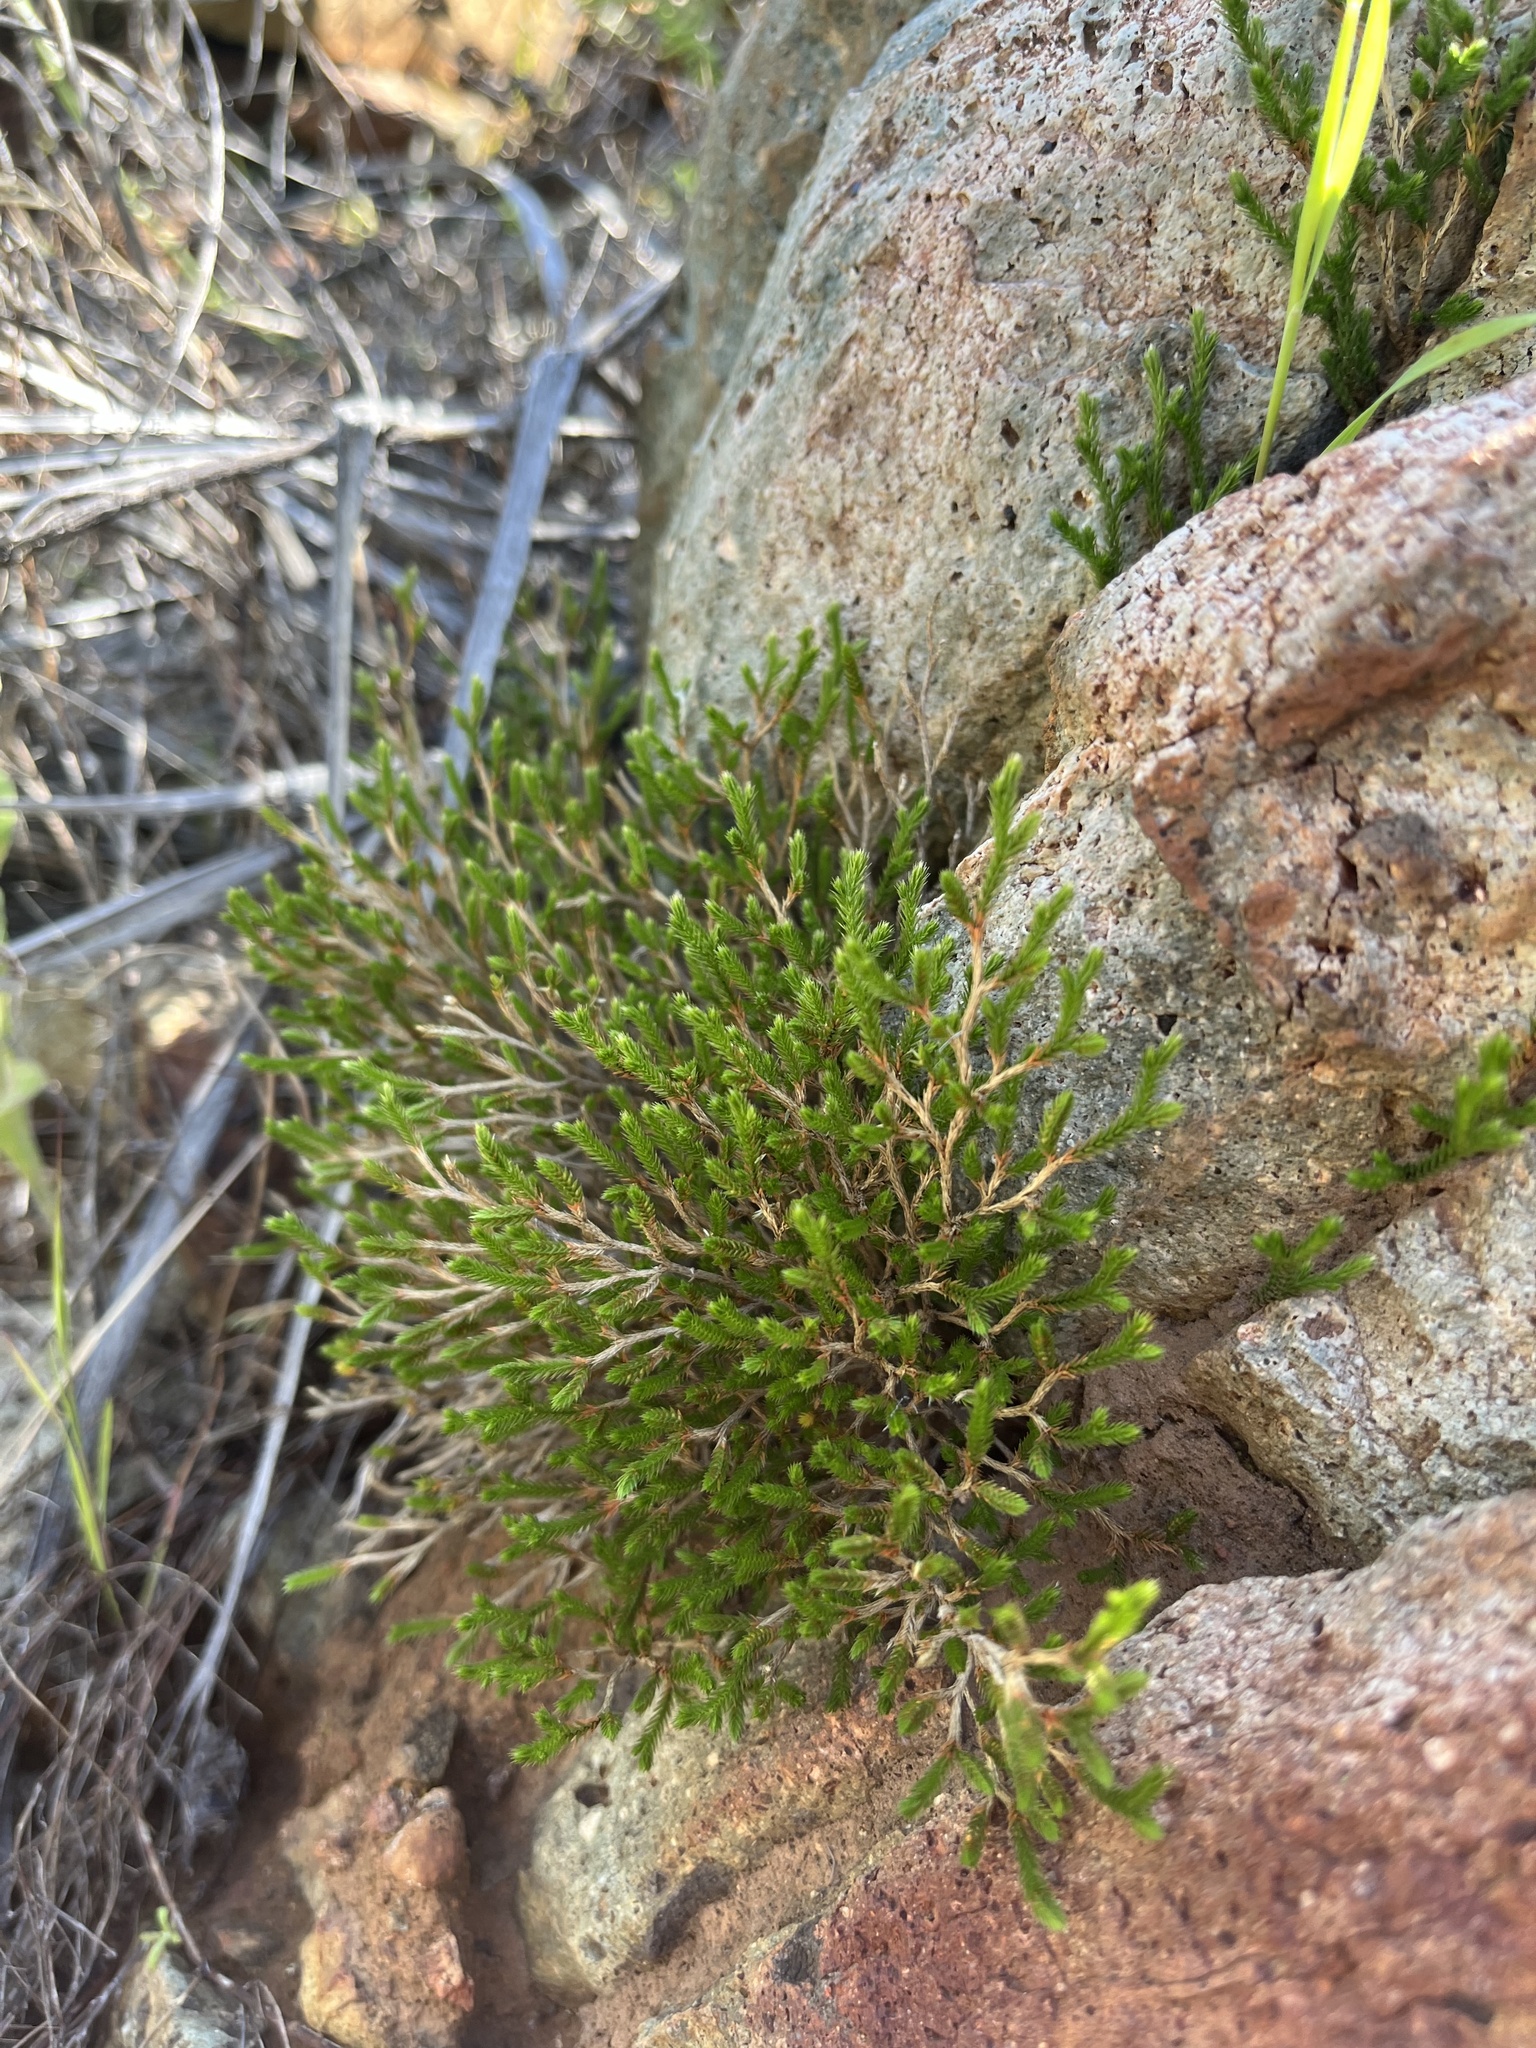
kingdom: Plantae
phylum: Tracheophyta
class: Lycopodiopsida
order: Selaginellales
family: Selaginellaceae
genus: Selaginella
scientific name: Selaginella bigelovii
